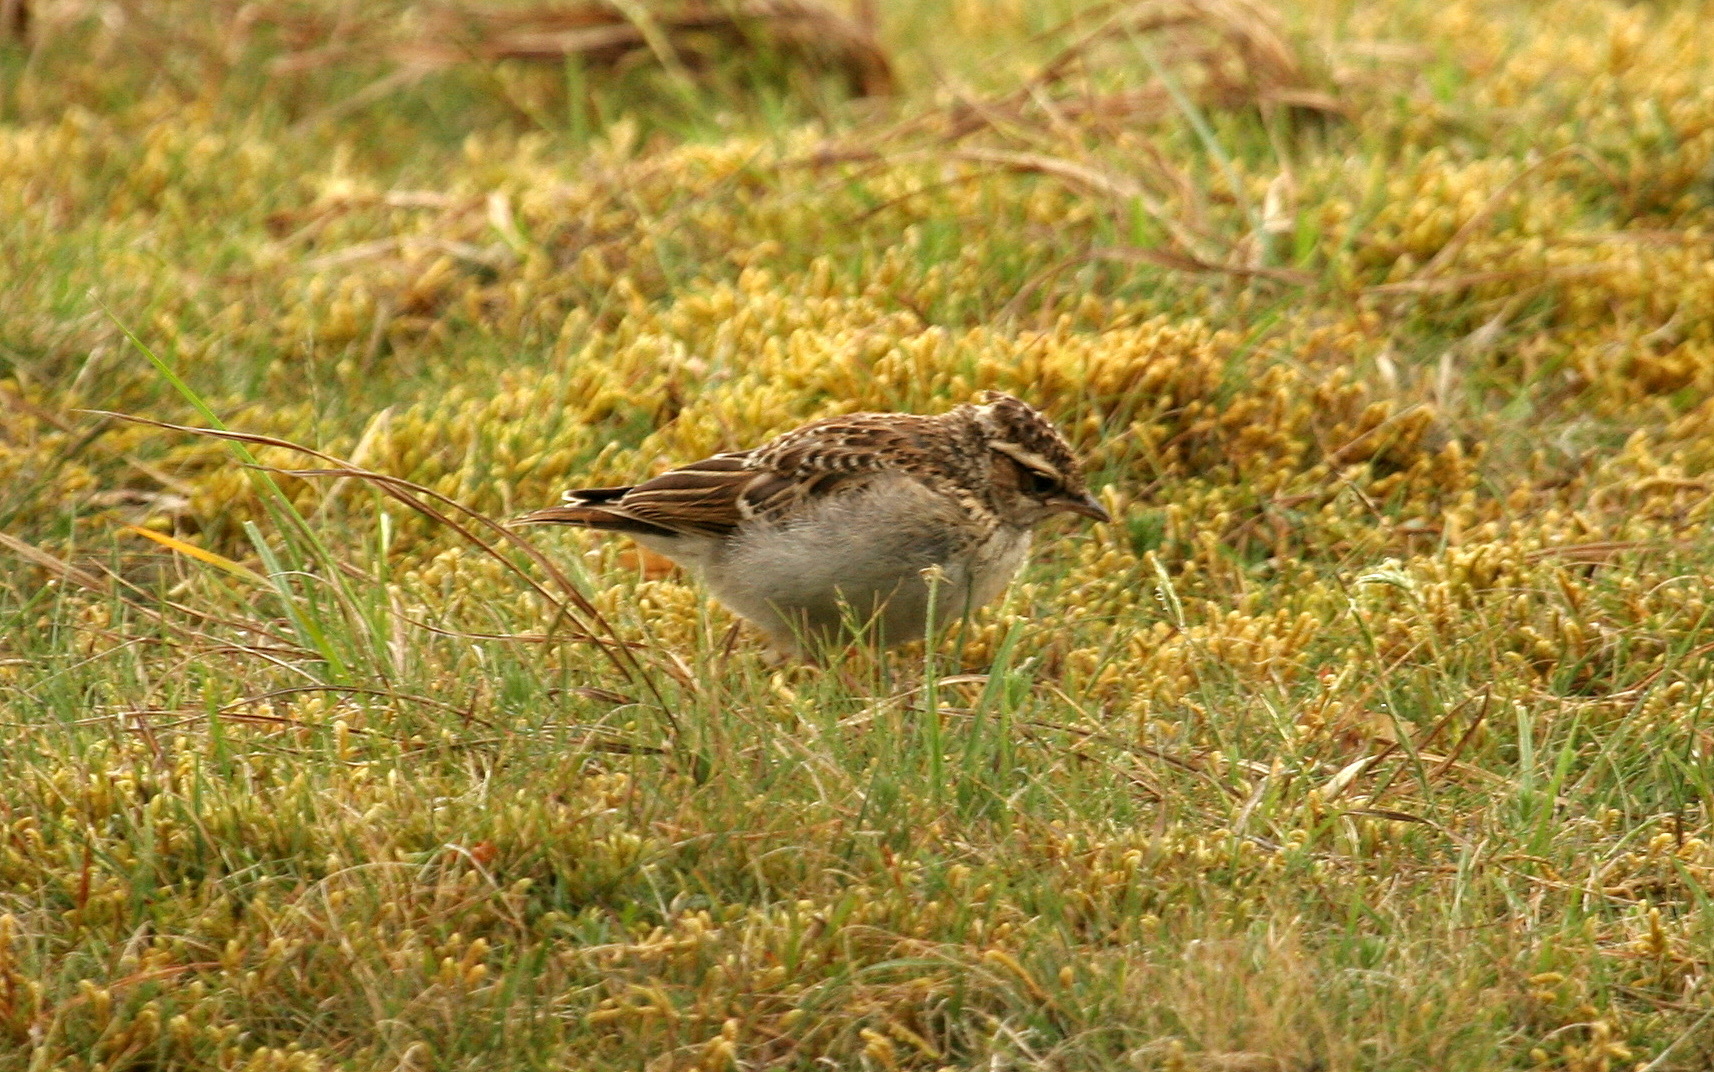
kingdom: Animalia
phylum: Chordata
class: Aves
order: Passeriformes
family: Alaudidae
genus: Lullula
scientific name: Lullula arborea
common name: Woodlark
